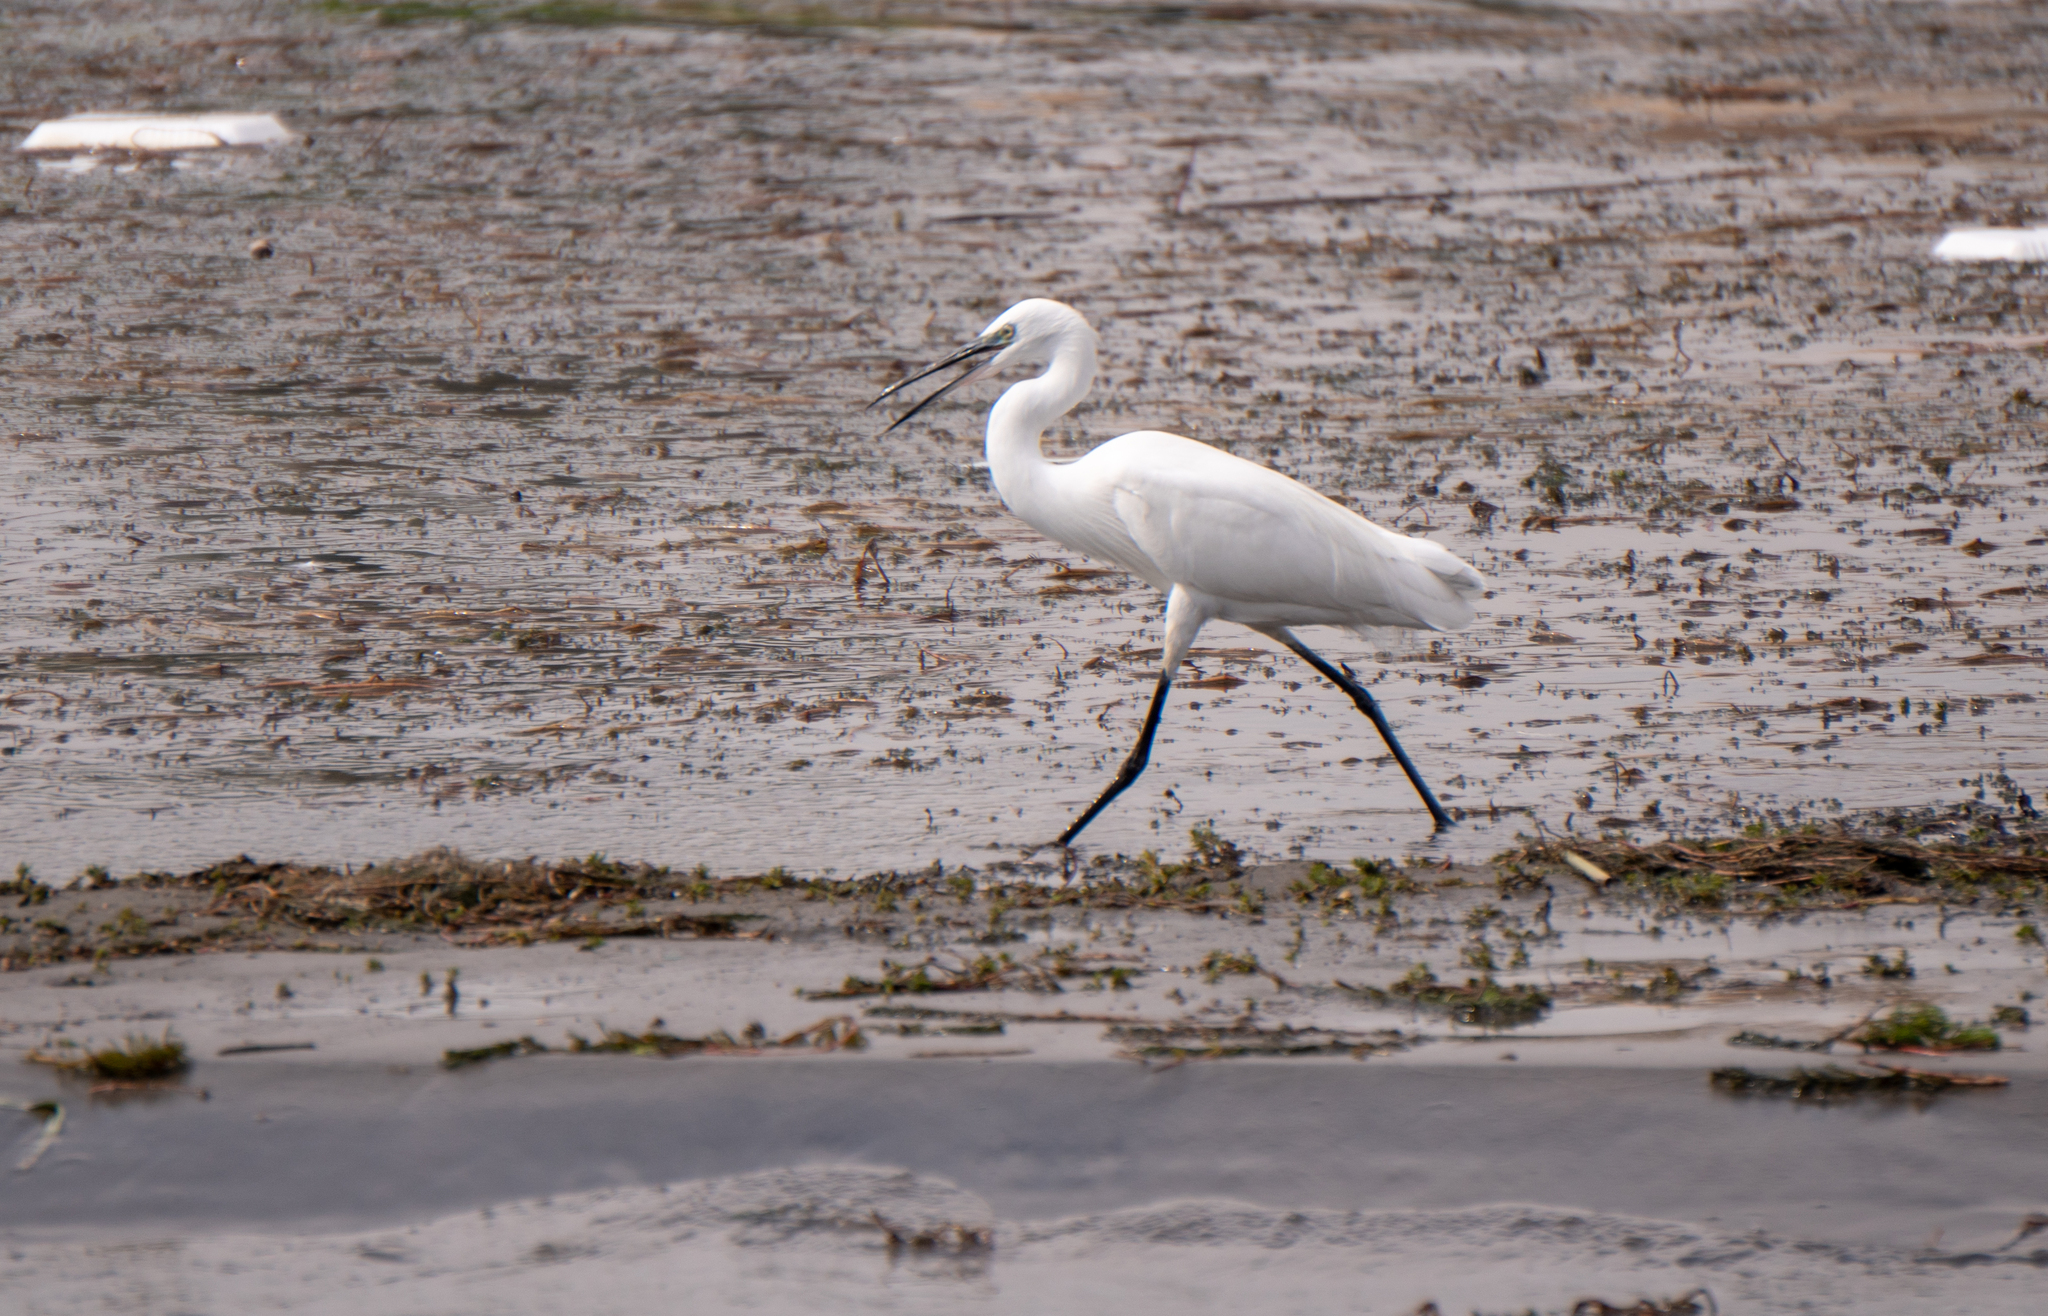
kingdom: Animalia
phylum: Chordata
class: Aves
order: Pelecaniformes
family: Ardeidae
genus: Egretta
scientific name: Egretta garzetta
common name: Little egret
